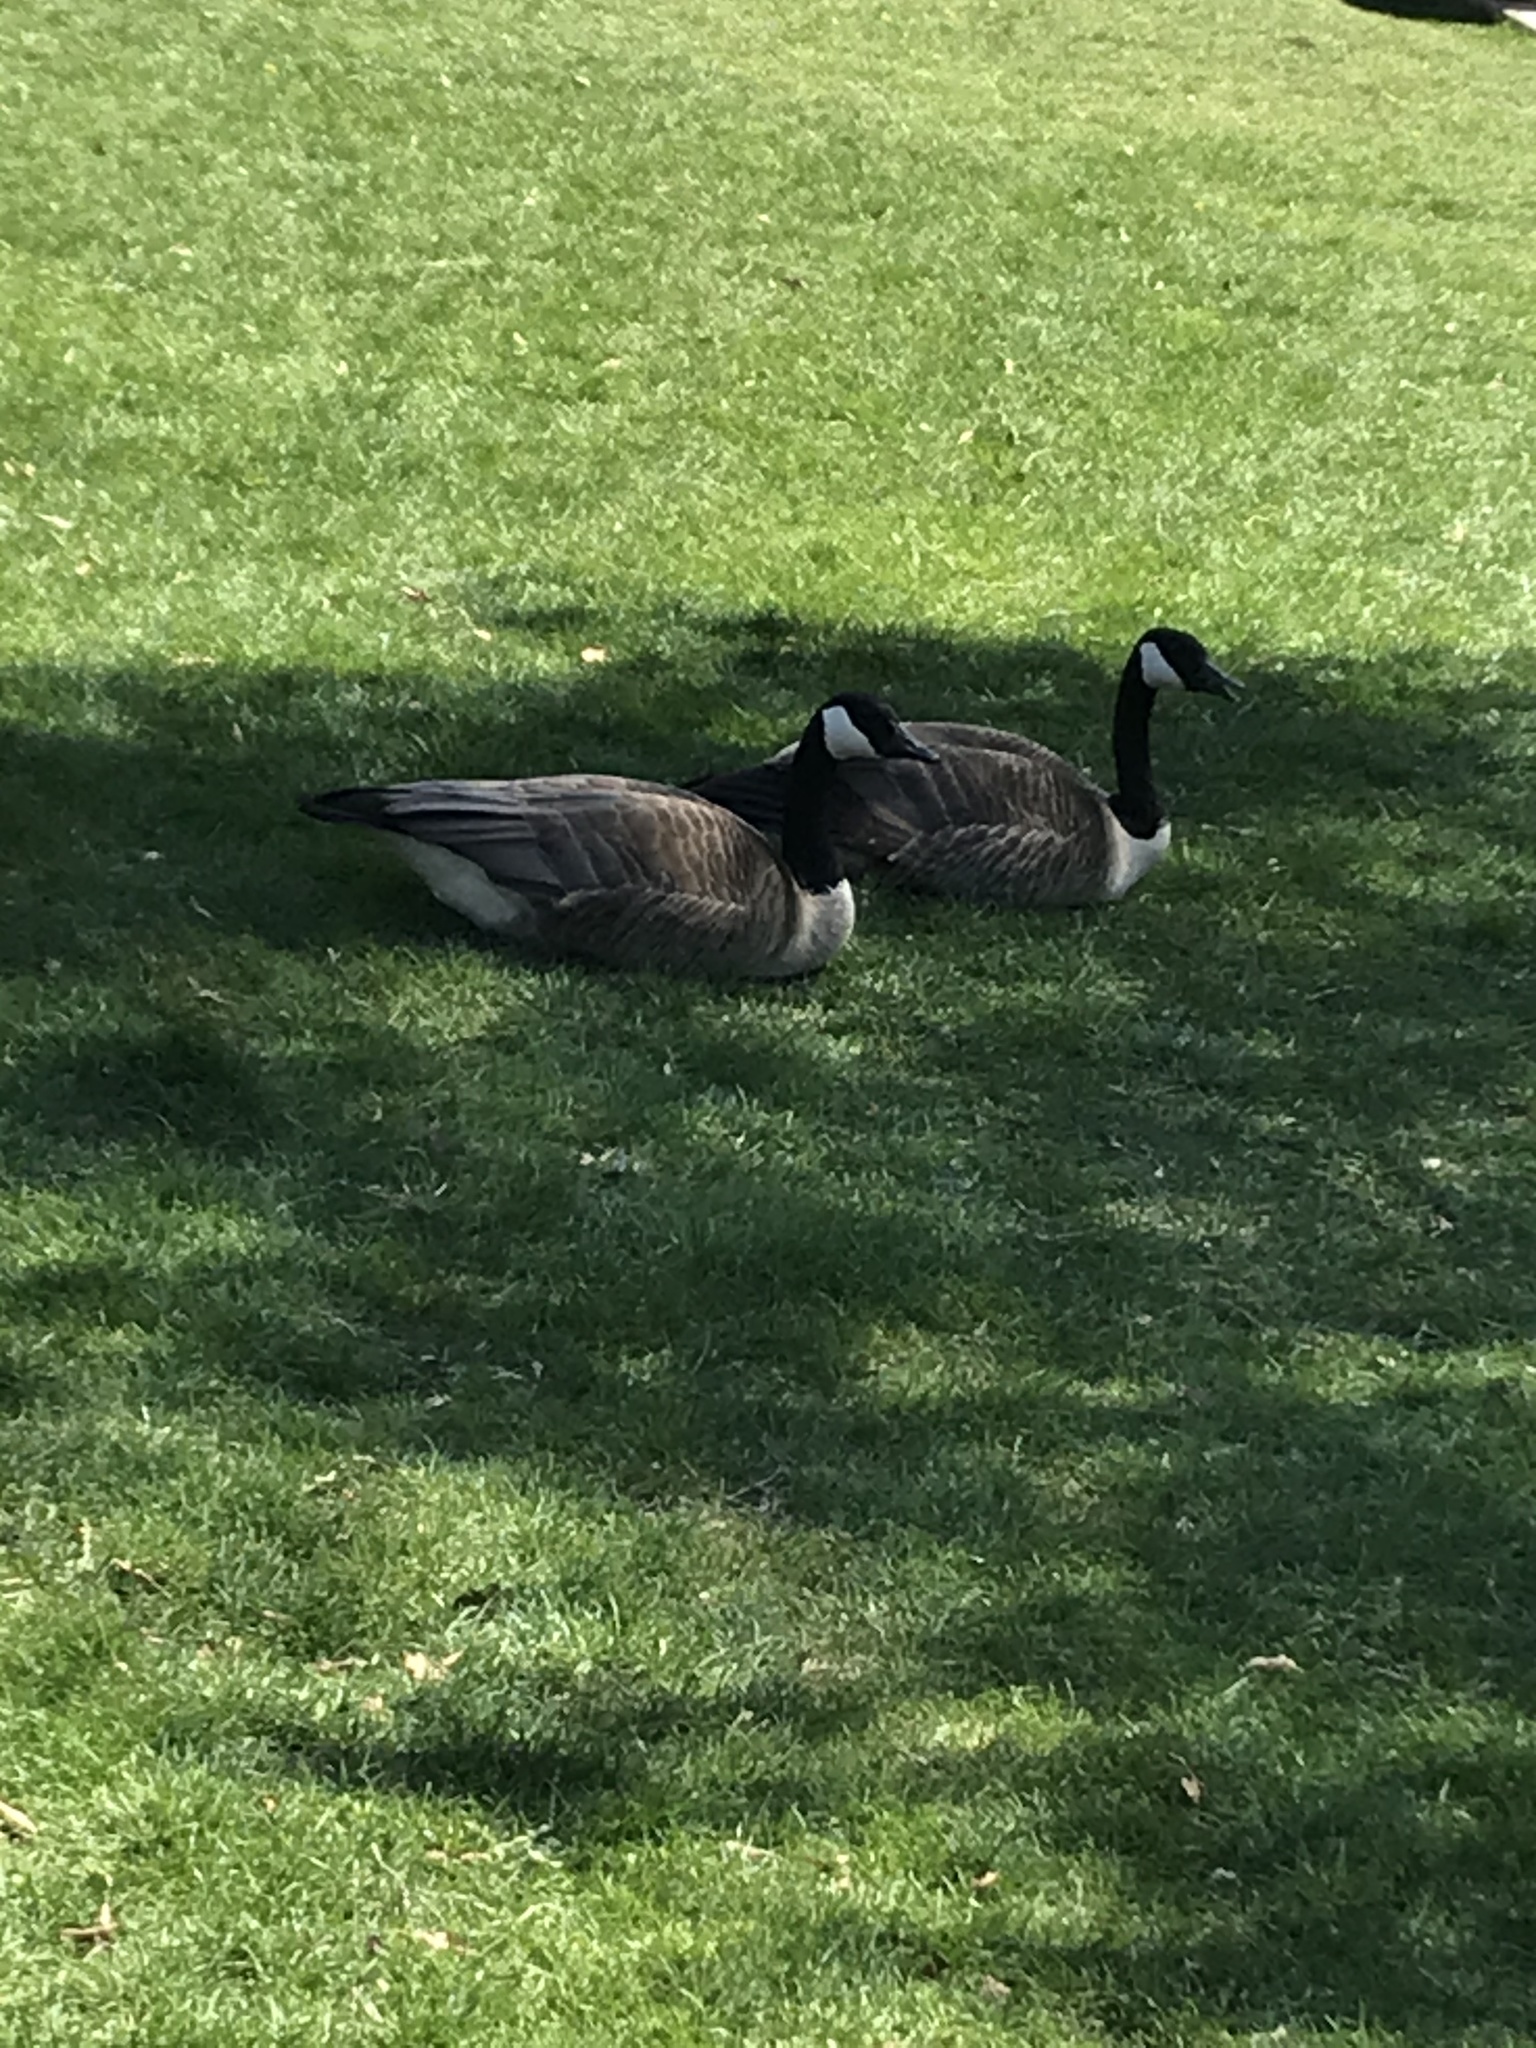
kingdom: Animalia
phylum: Chordata
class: Aves
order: Anseriformes
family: Anatidae
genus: Branta
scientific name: Branta canadensis
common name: Canada goose
